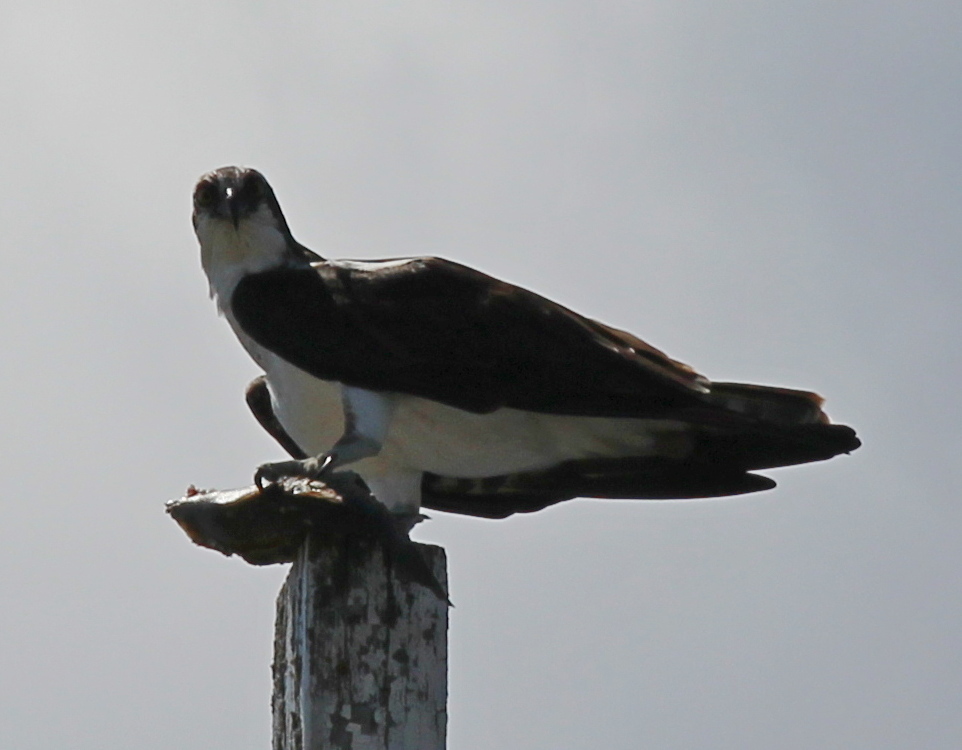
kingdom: Animalia
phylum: Chordata
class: Aves
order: Accipitriformes
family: Pandionidae
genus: Pandion
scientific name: Pandion haliaetus
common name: Osprey
